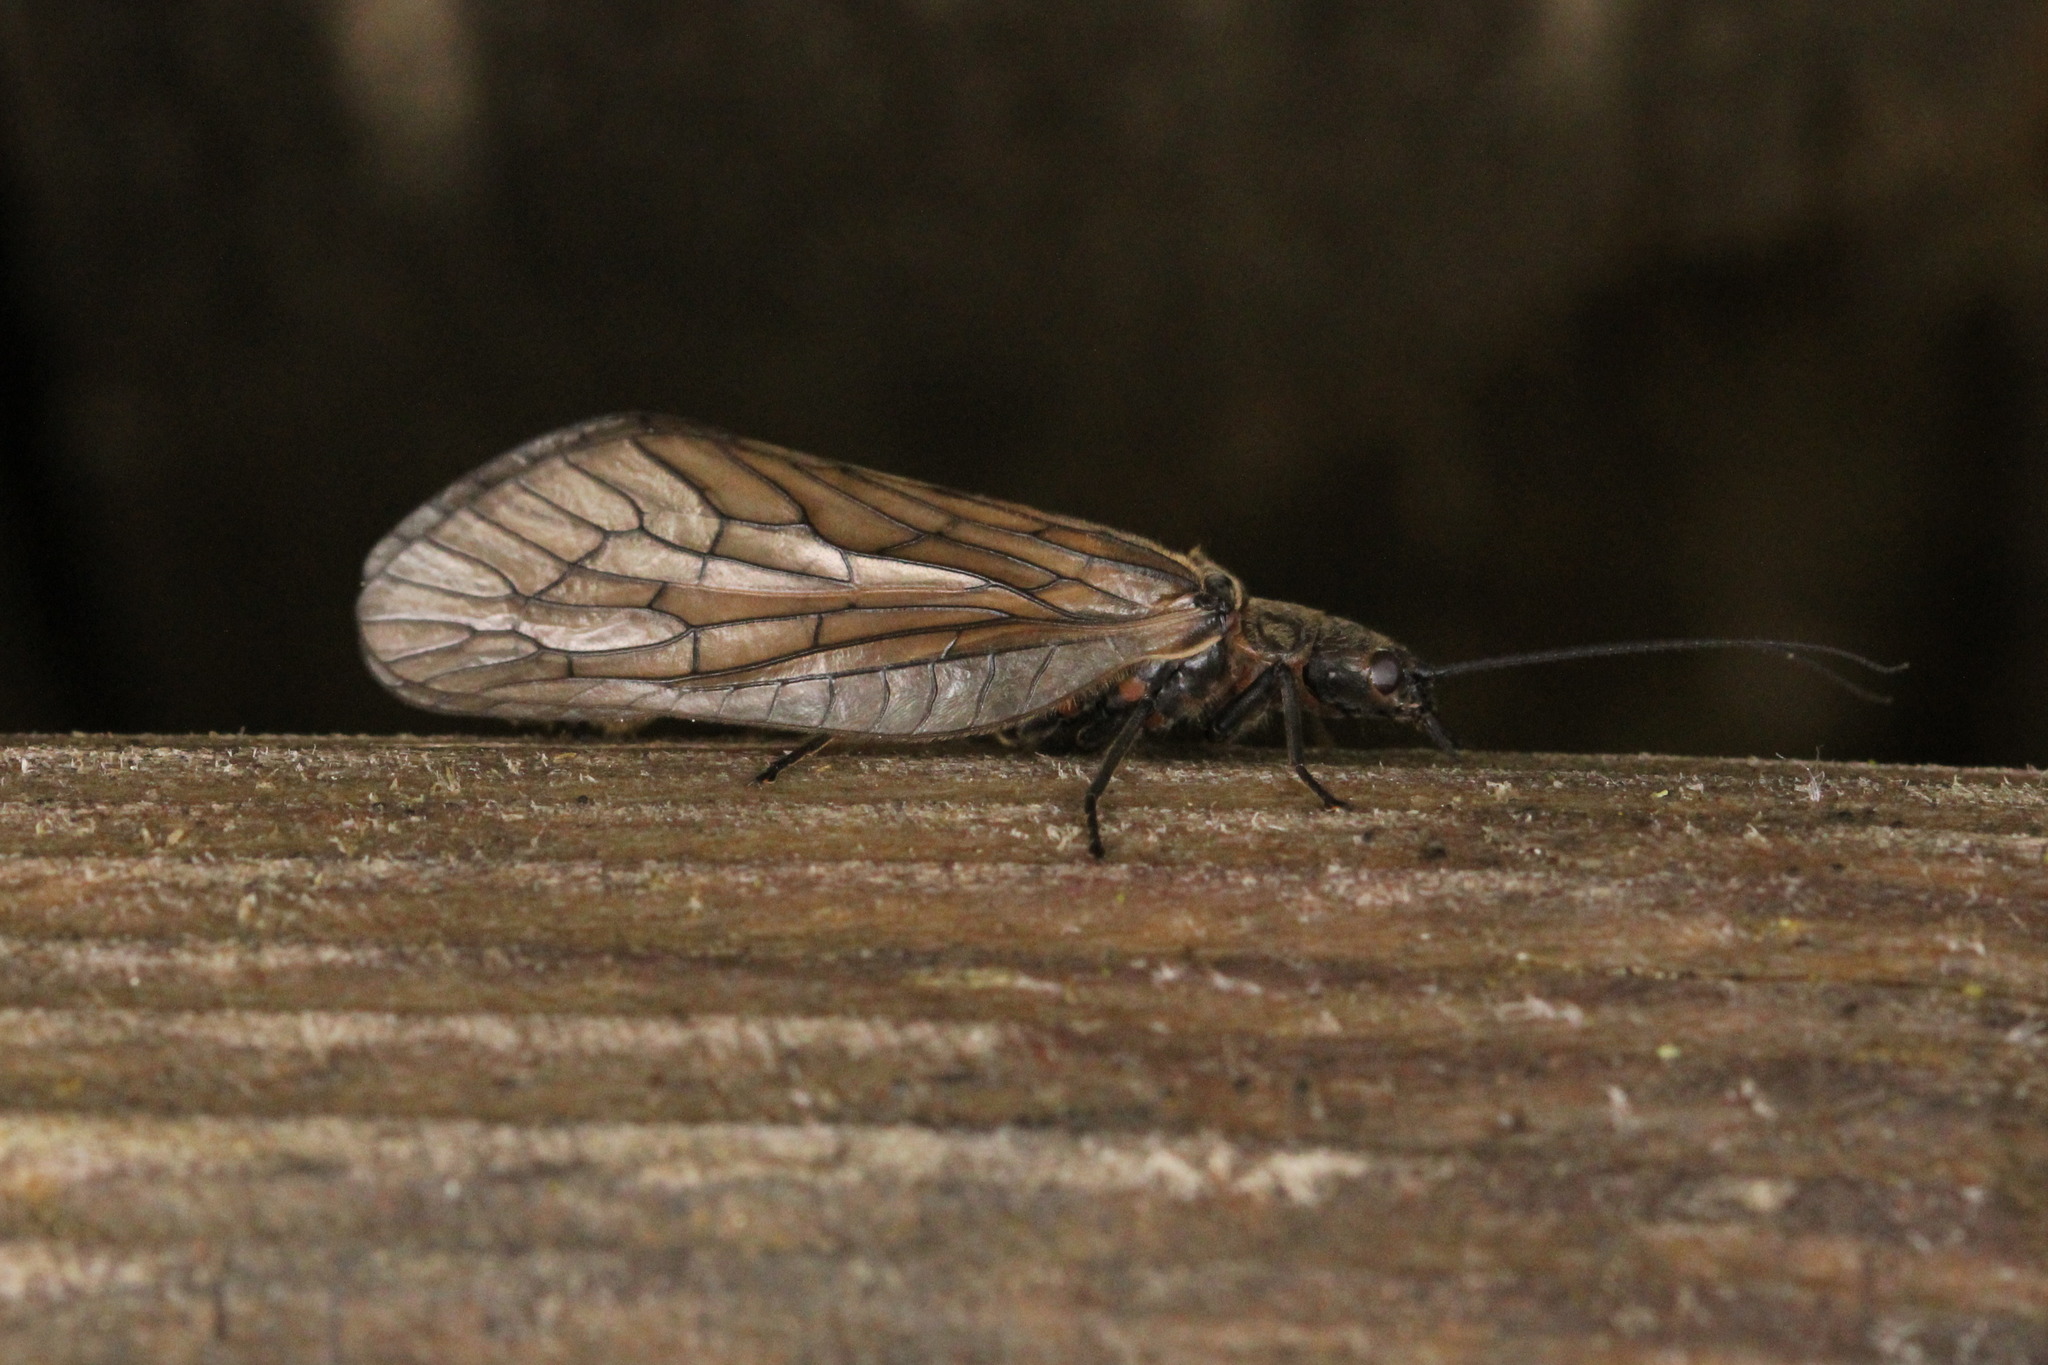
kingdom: Animalia
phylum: Arthropoda
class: Insecta
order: Megaloptera
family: Sialidae
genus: Sialis
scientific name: Sialis lutaria
